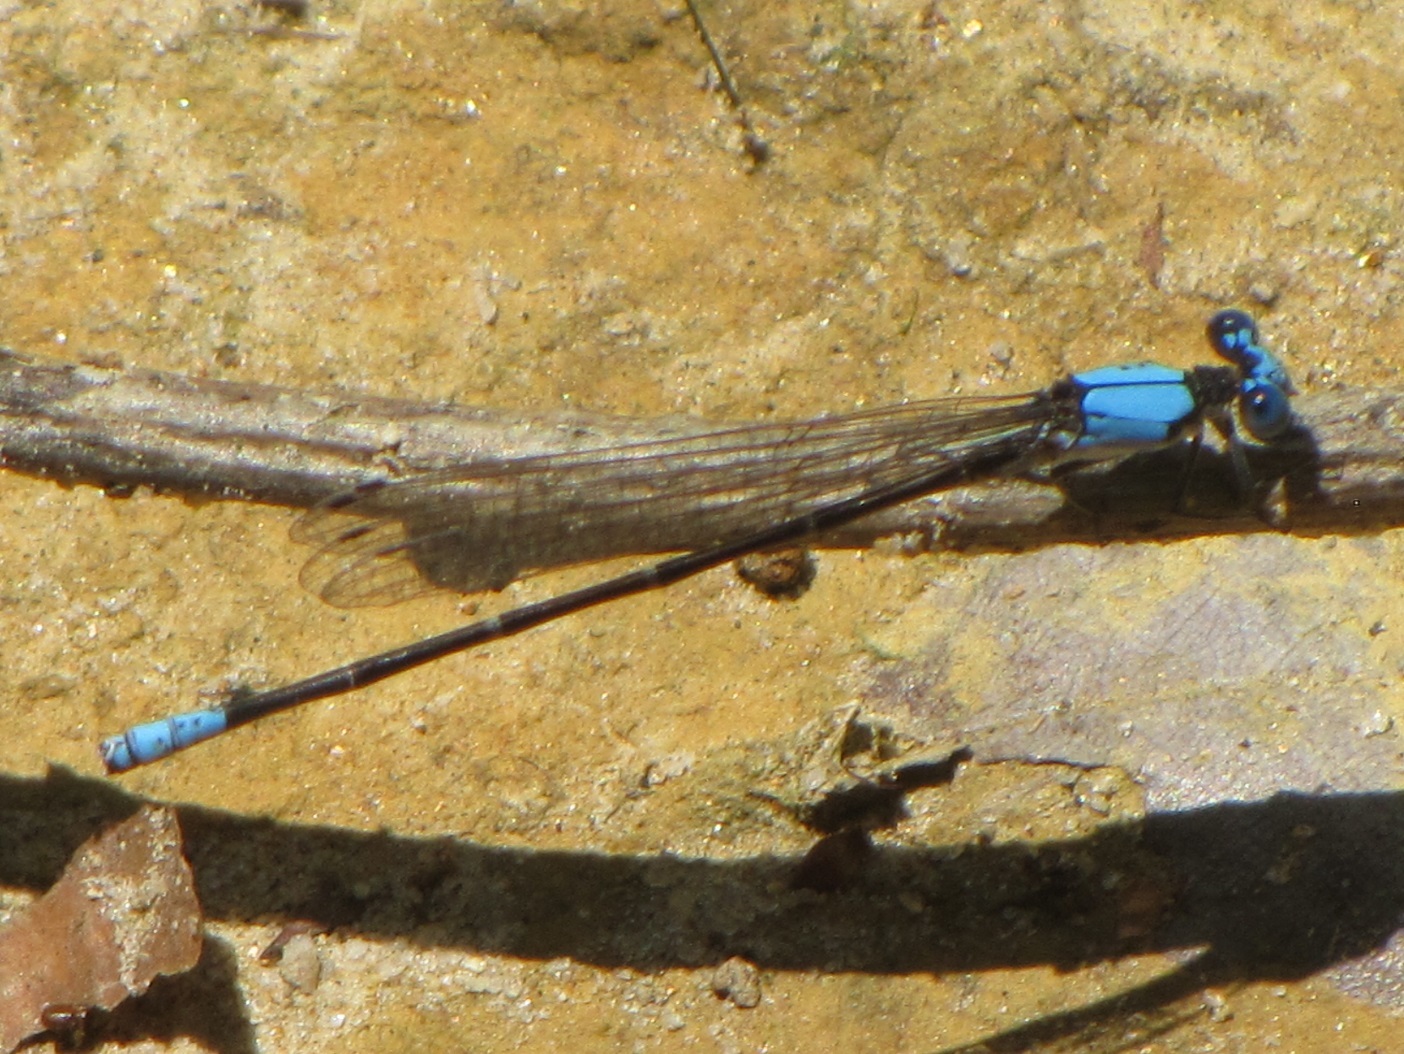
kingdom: Animalia
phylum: Arthropoda
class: Insecta
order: Odonata
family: Coenagrionidae
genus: Argia
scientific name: Argia apicalis
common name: Blue-fronted dancer
